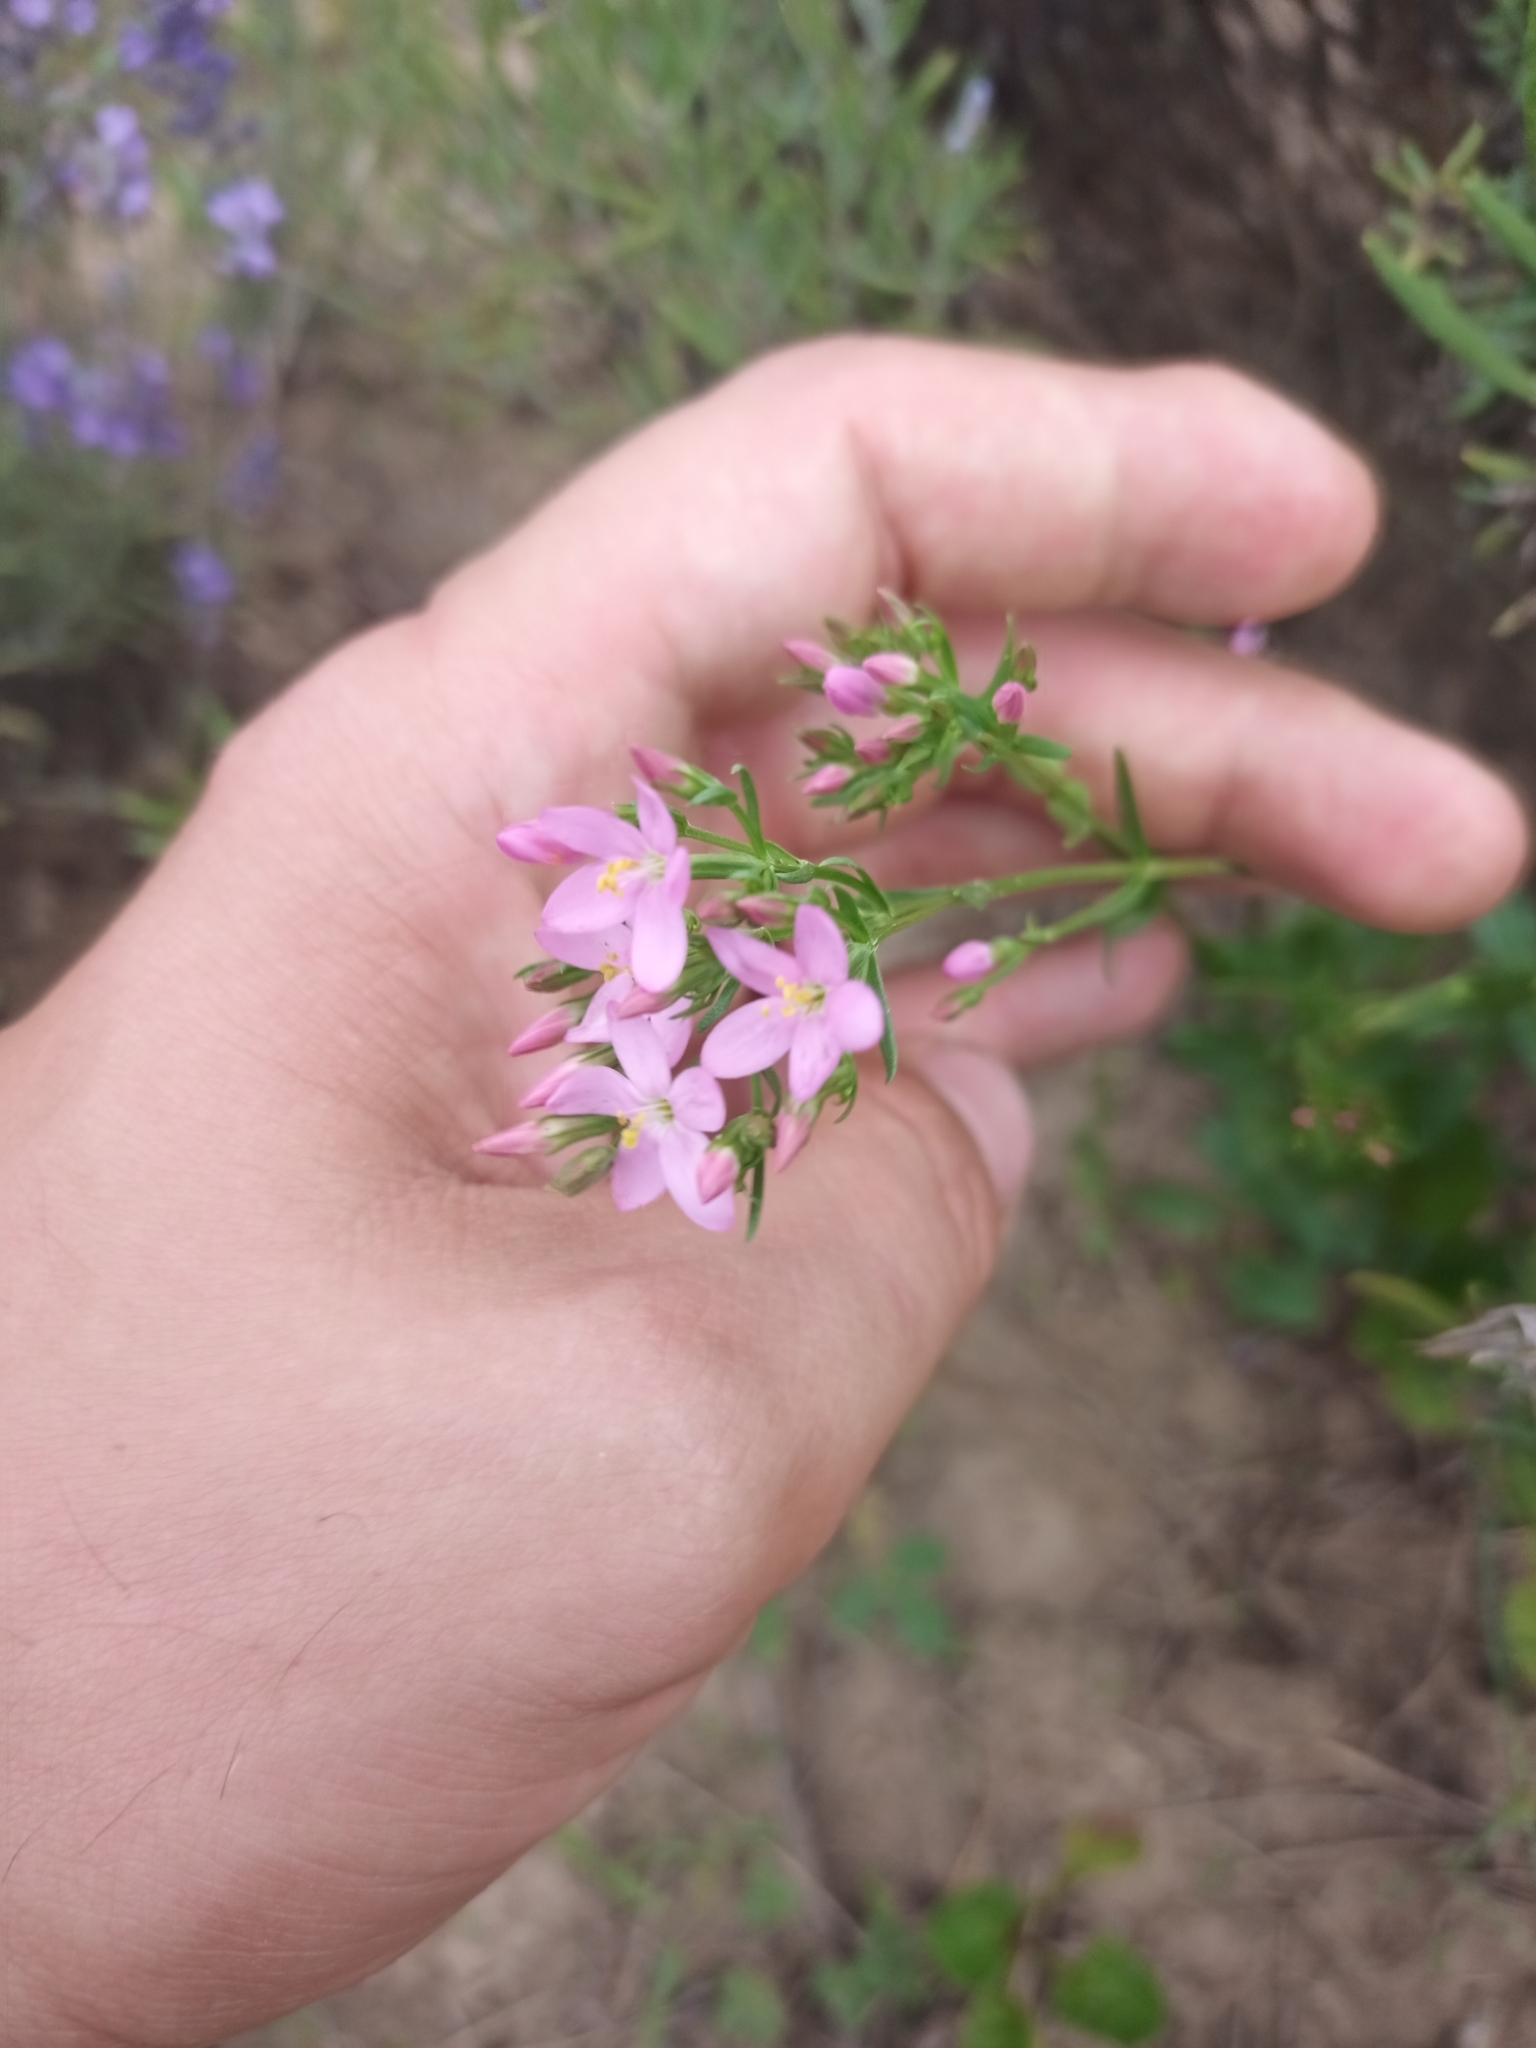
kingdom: Plantae
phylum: Tracheophyta
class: Magnoliopsida
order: Gentianales
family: Gentianaceae
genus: Centaurium
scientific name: Centaurium erythraea
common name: Common centaury
